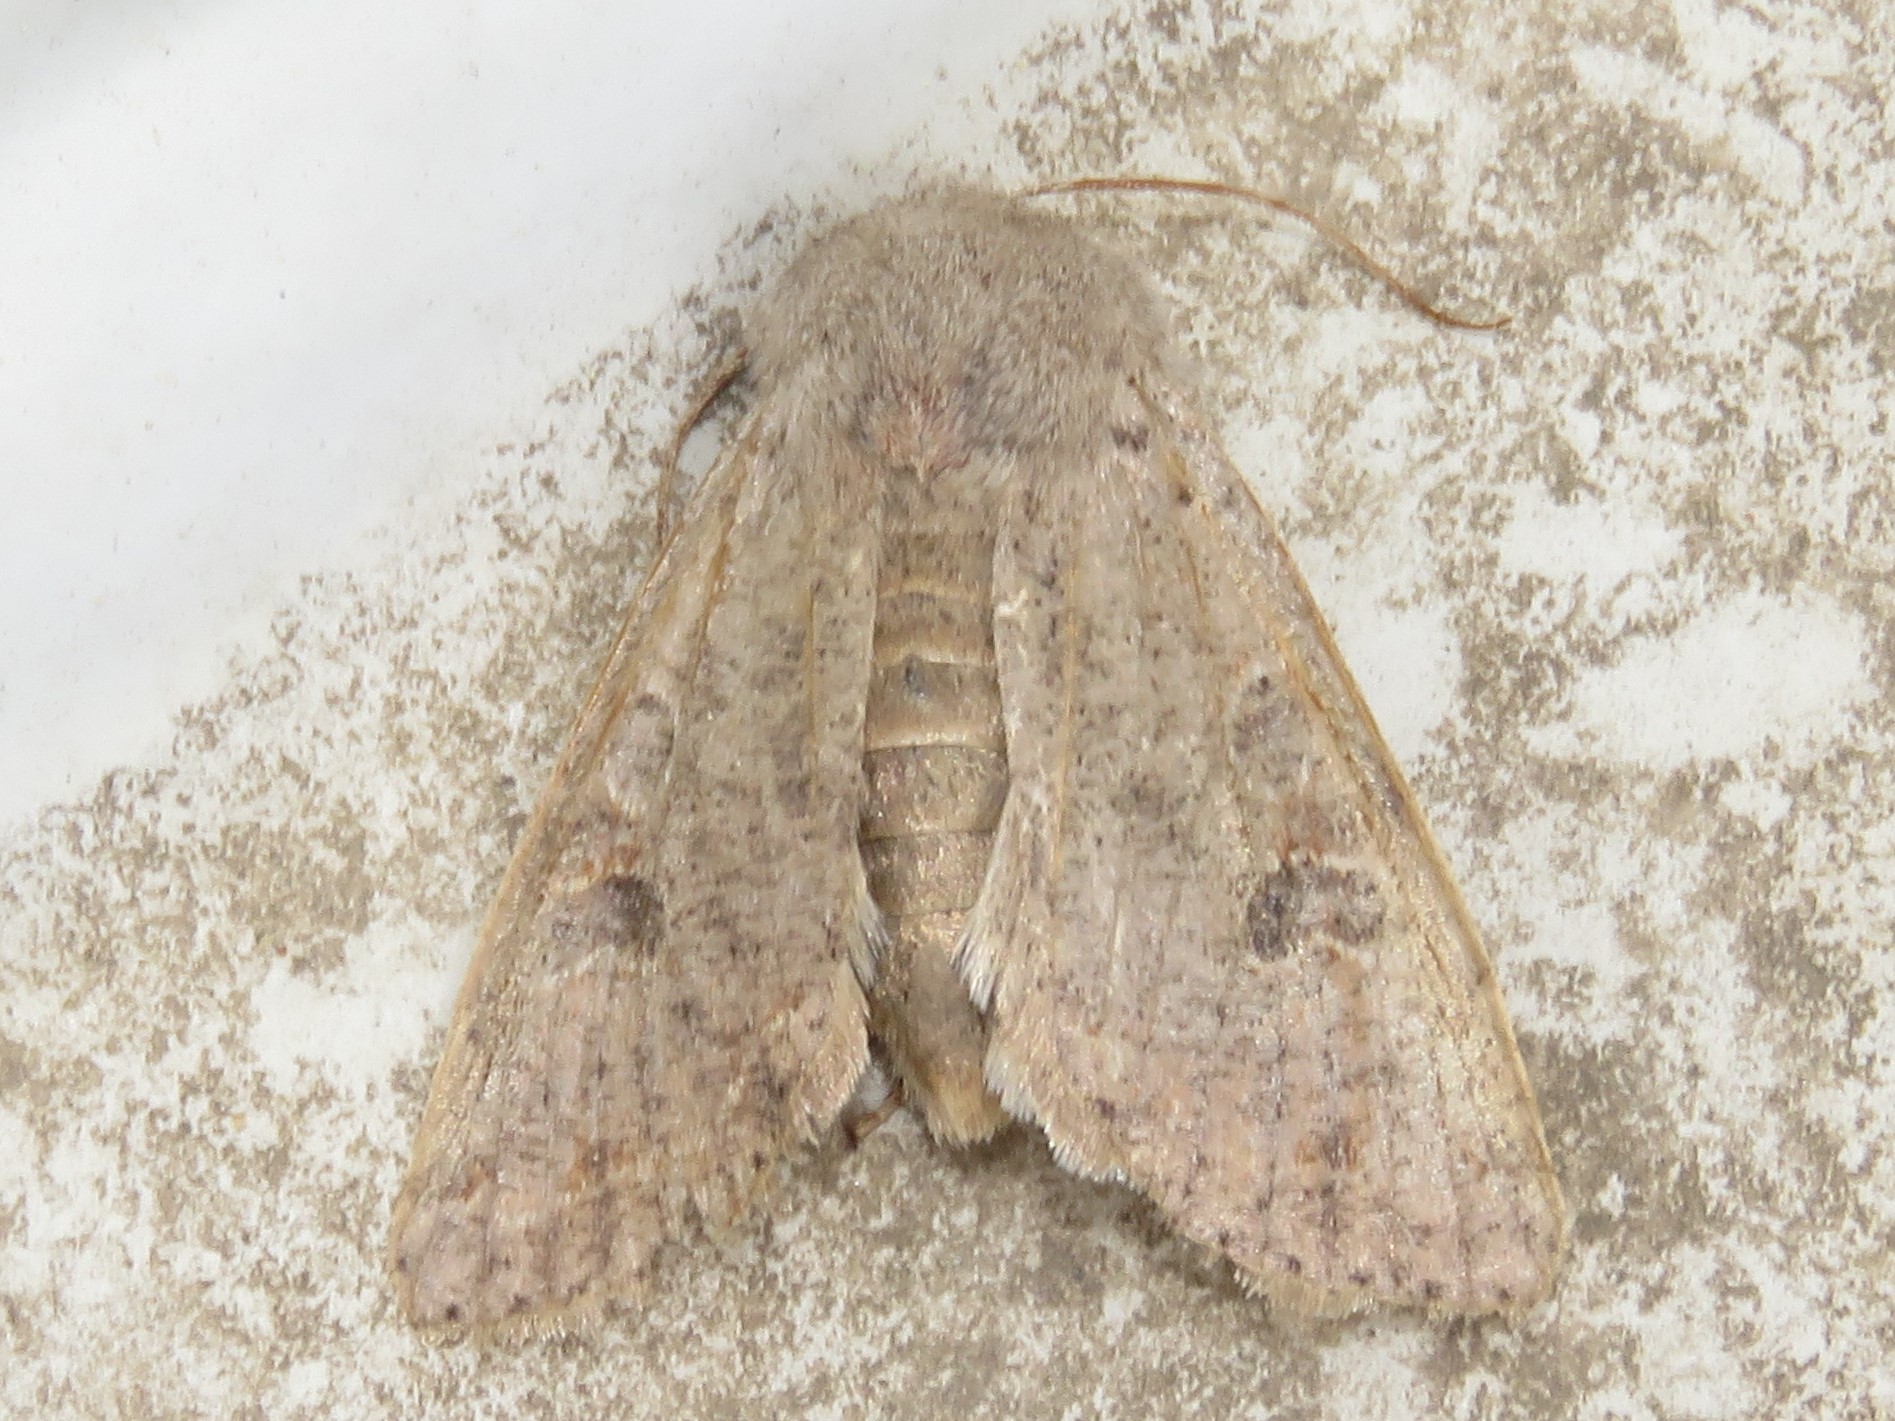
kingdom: Animalia
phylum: Arthropoda
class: Insecta
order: Lepidoptera
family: Noctuidae
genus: Orthosia
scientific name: Orthosia hibisci
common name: Green fruitworm
